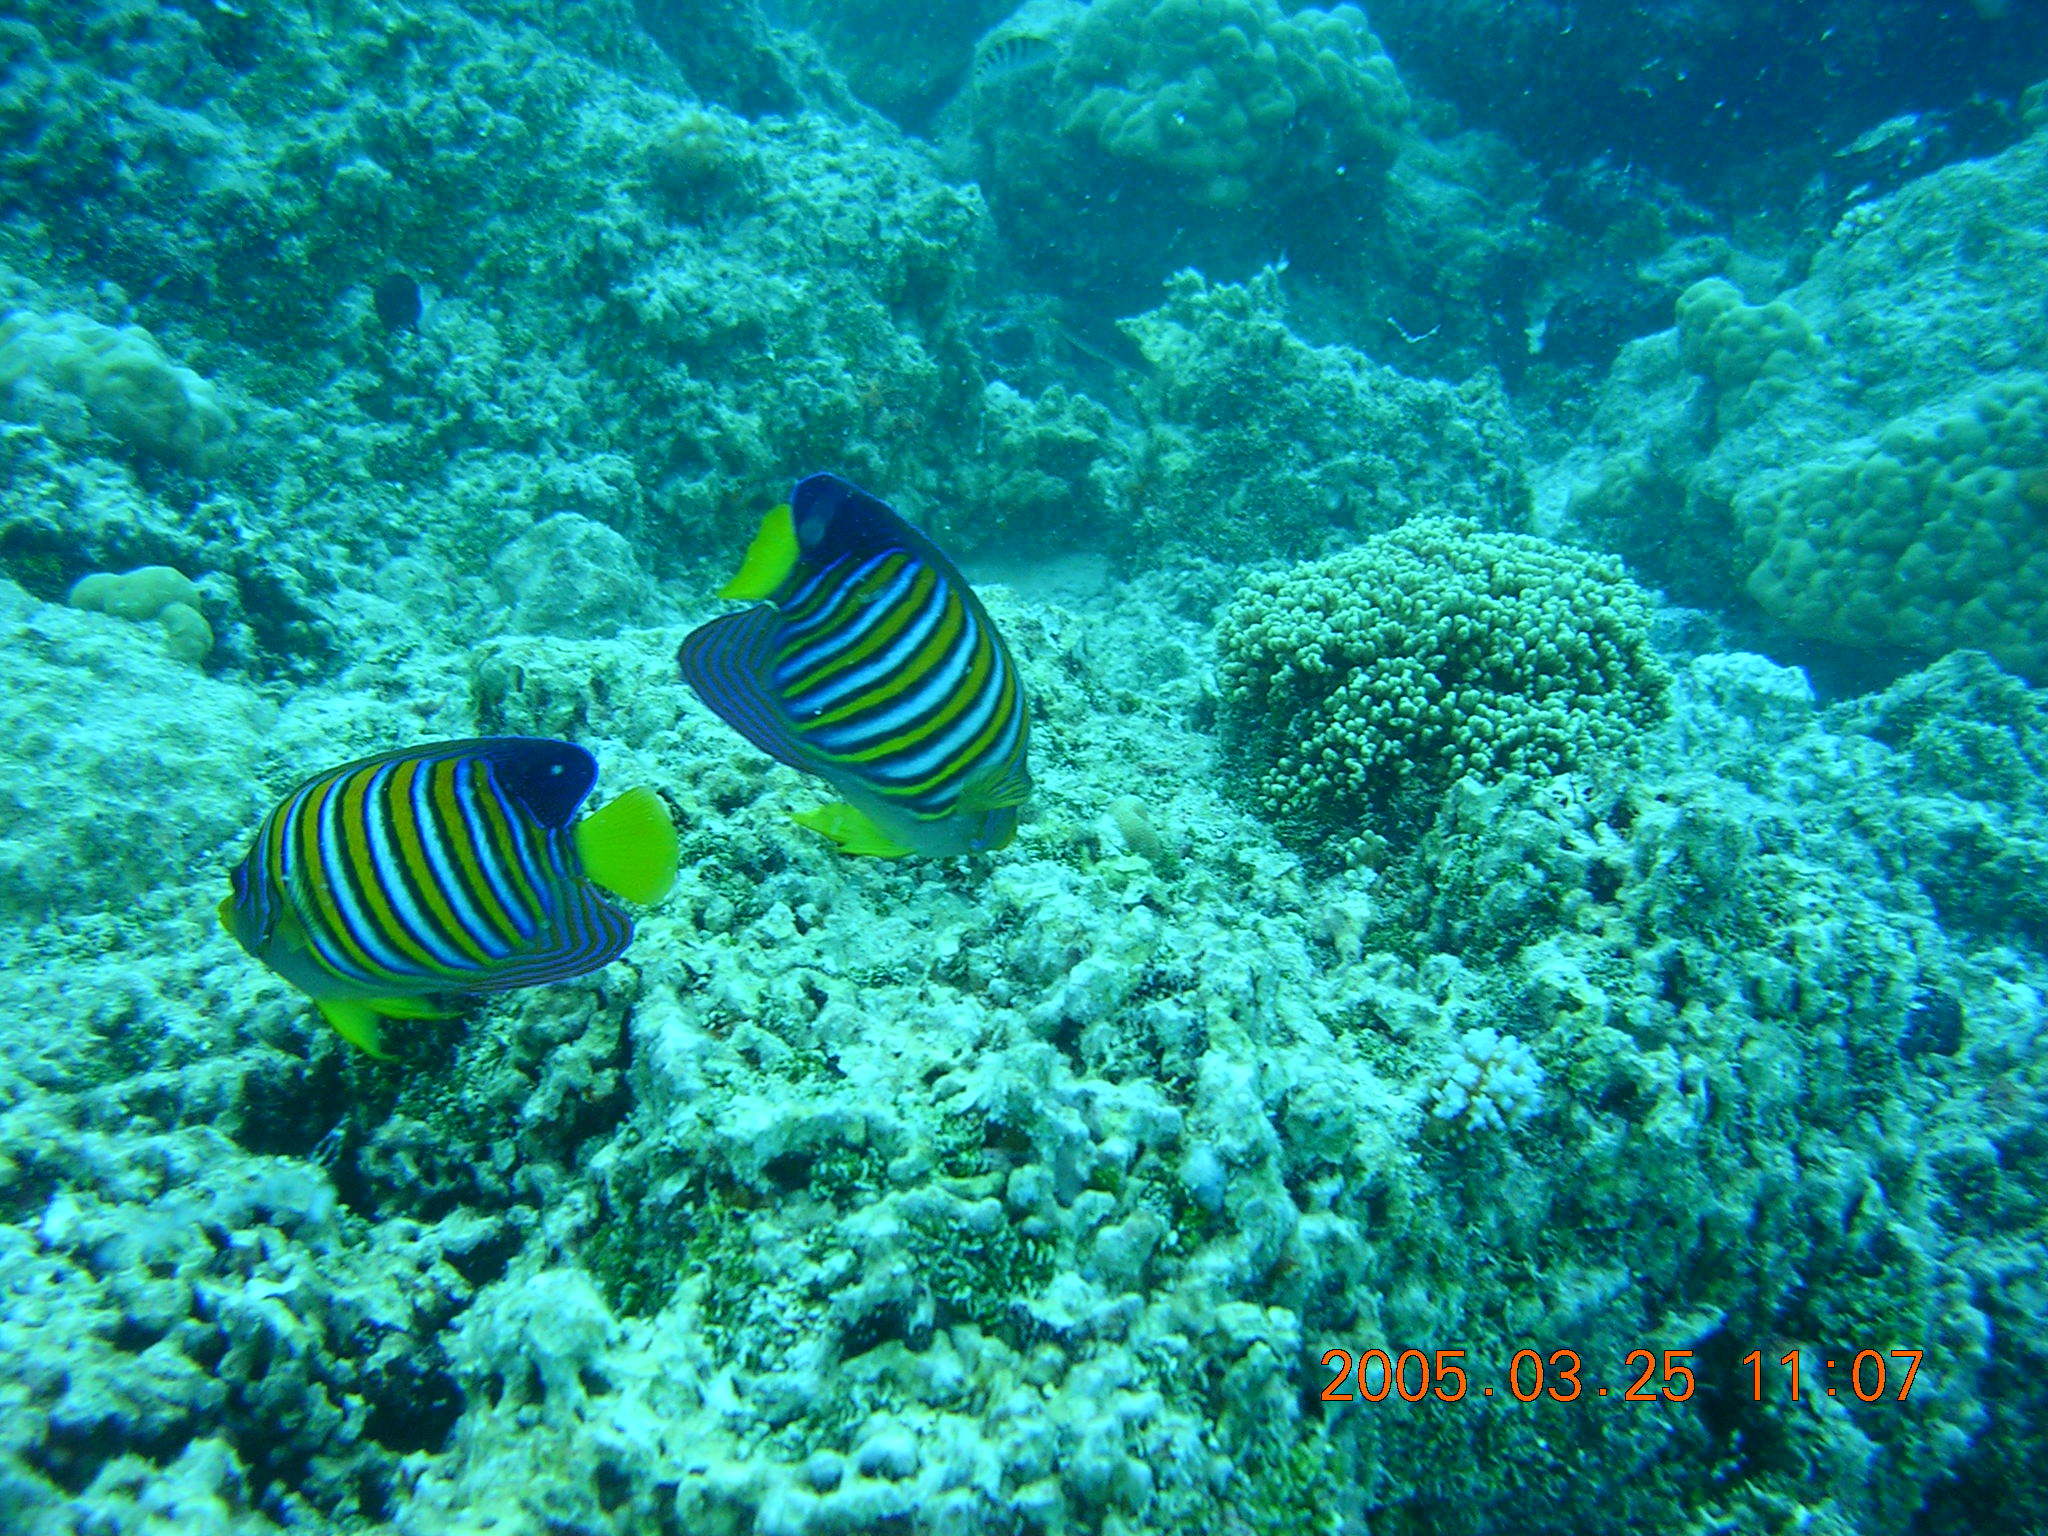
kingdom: Animalia
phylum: Chordata
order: Perciformes
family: Pomacanthidae
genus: Pygoplites
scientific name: Pygoplites diacanthus
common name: Regal angelfish
